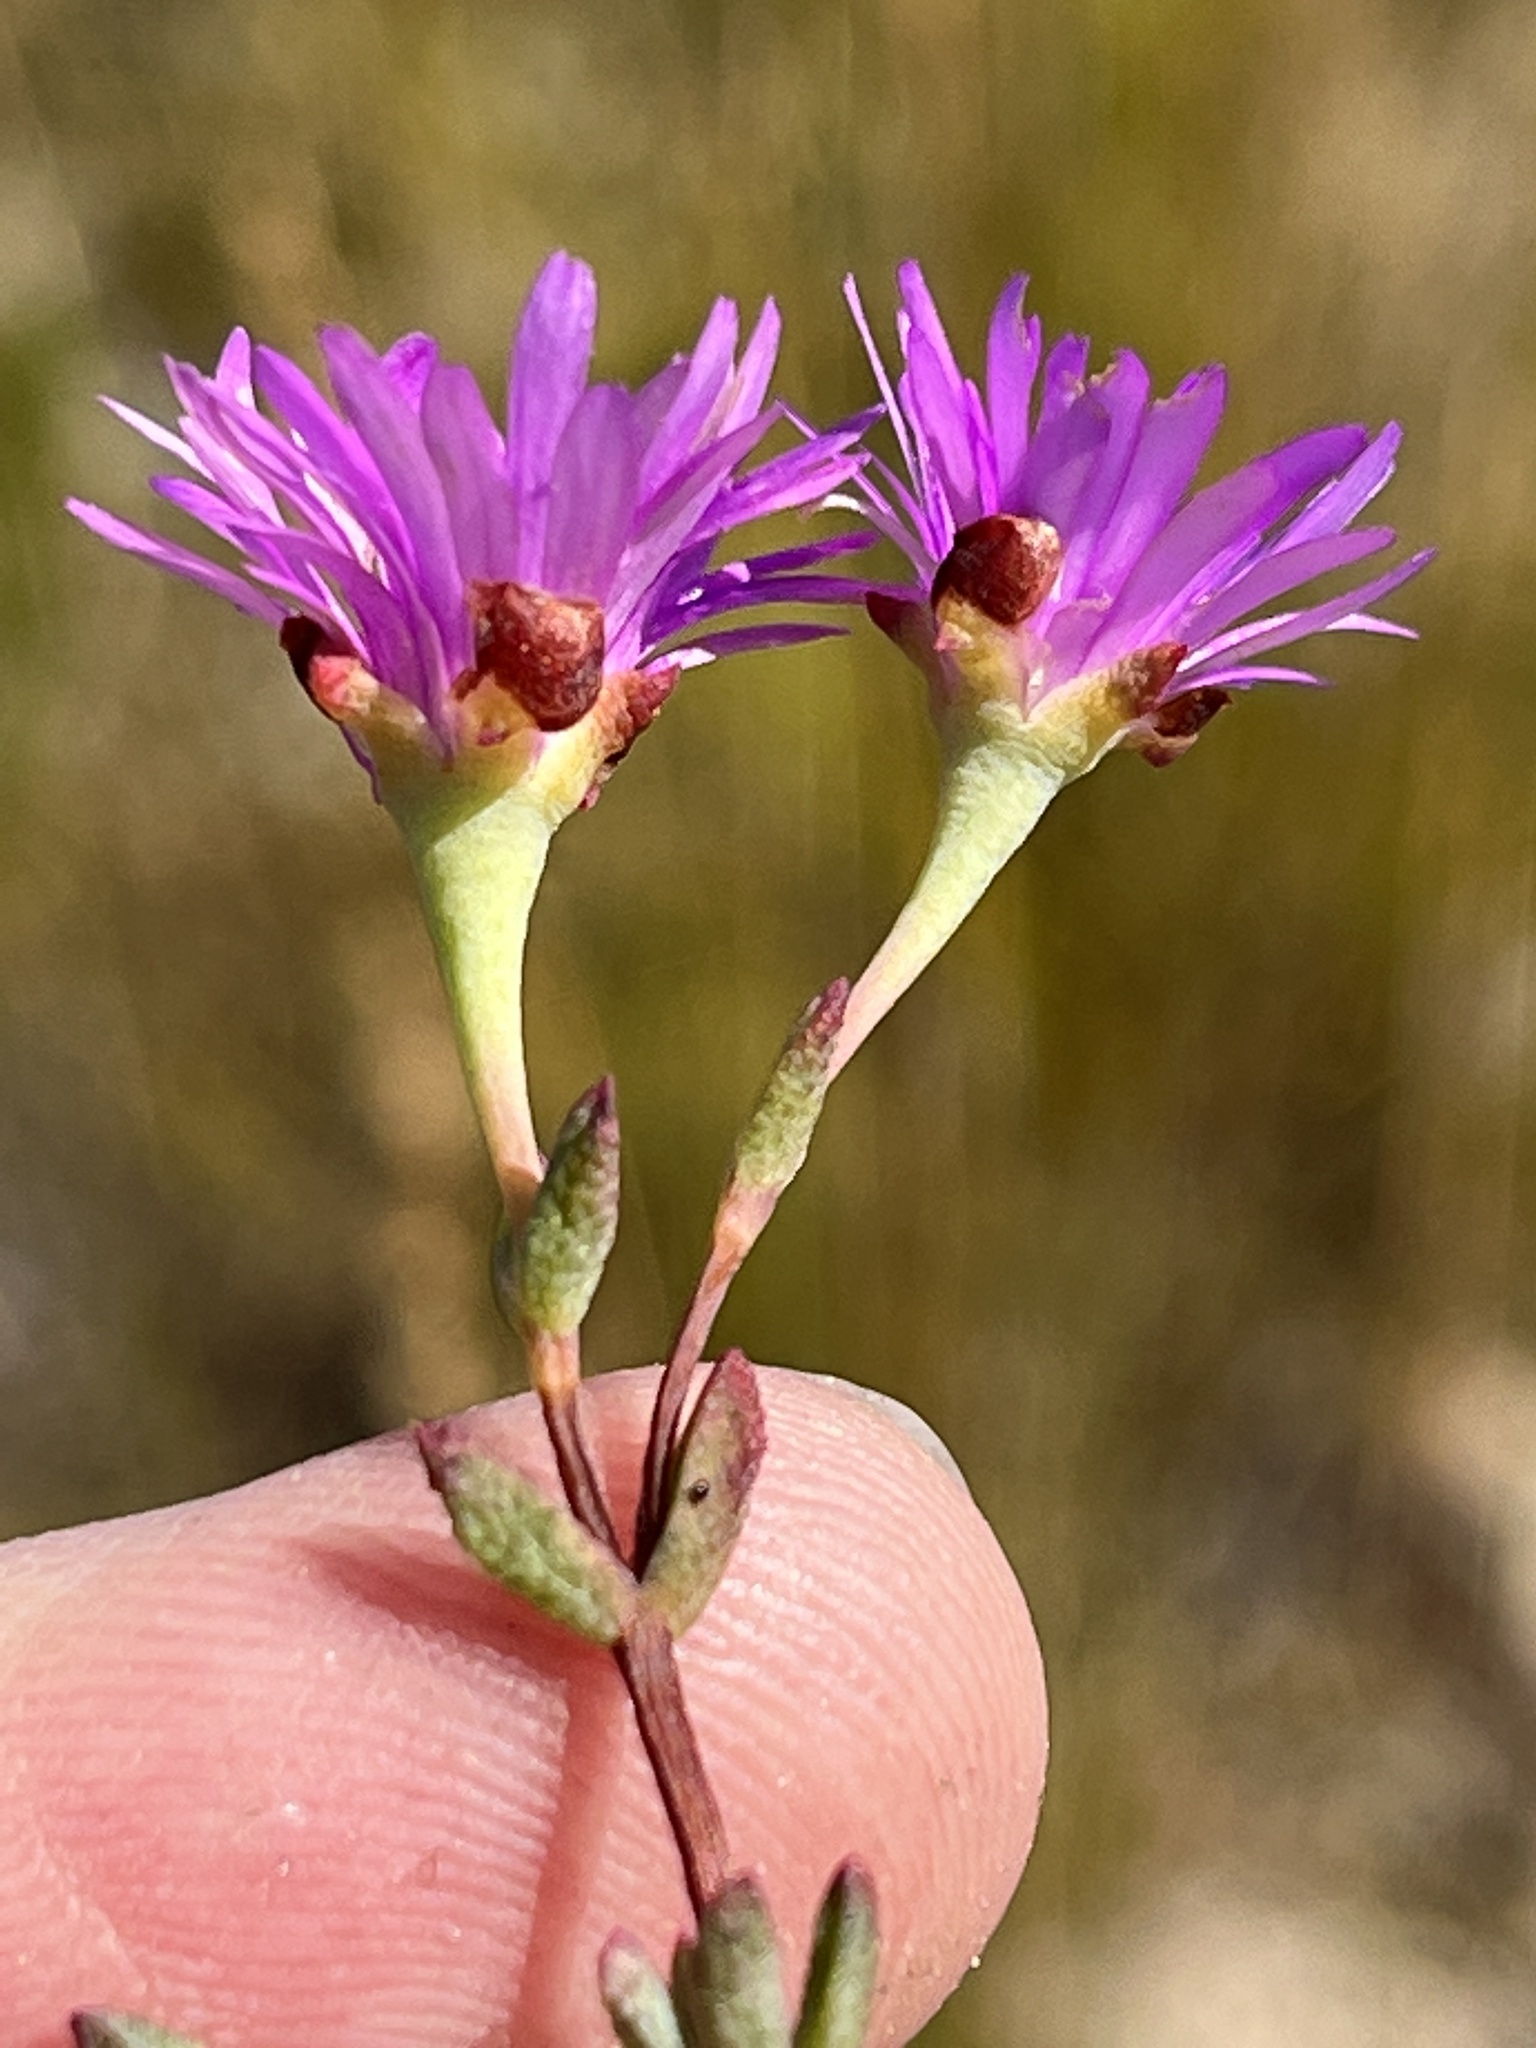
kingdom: Plantae
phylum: Tracheophyta
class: Magnoliopsida
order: Caryophyllales
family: Aizoaceae
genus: Lampranthus
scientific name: Lampranthus falcatus
